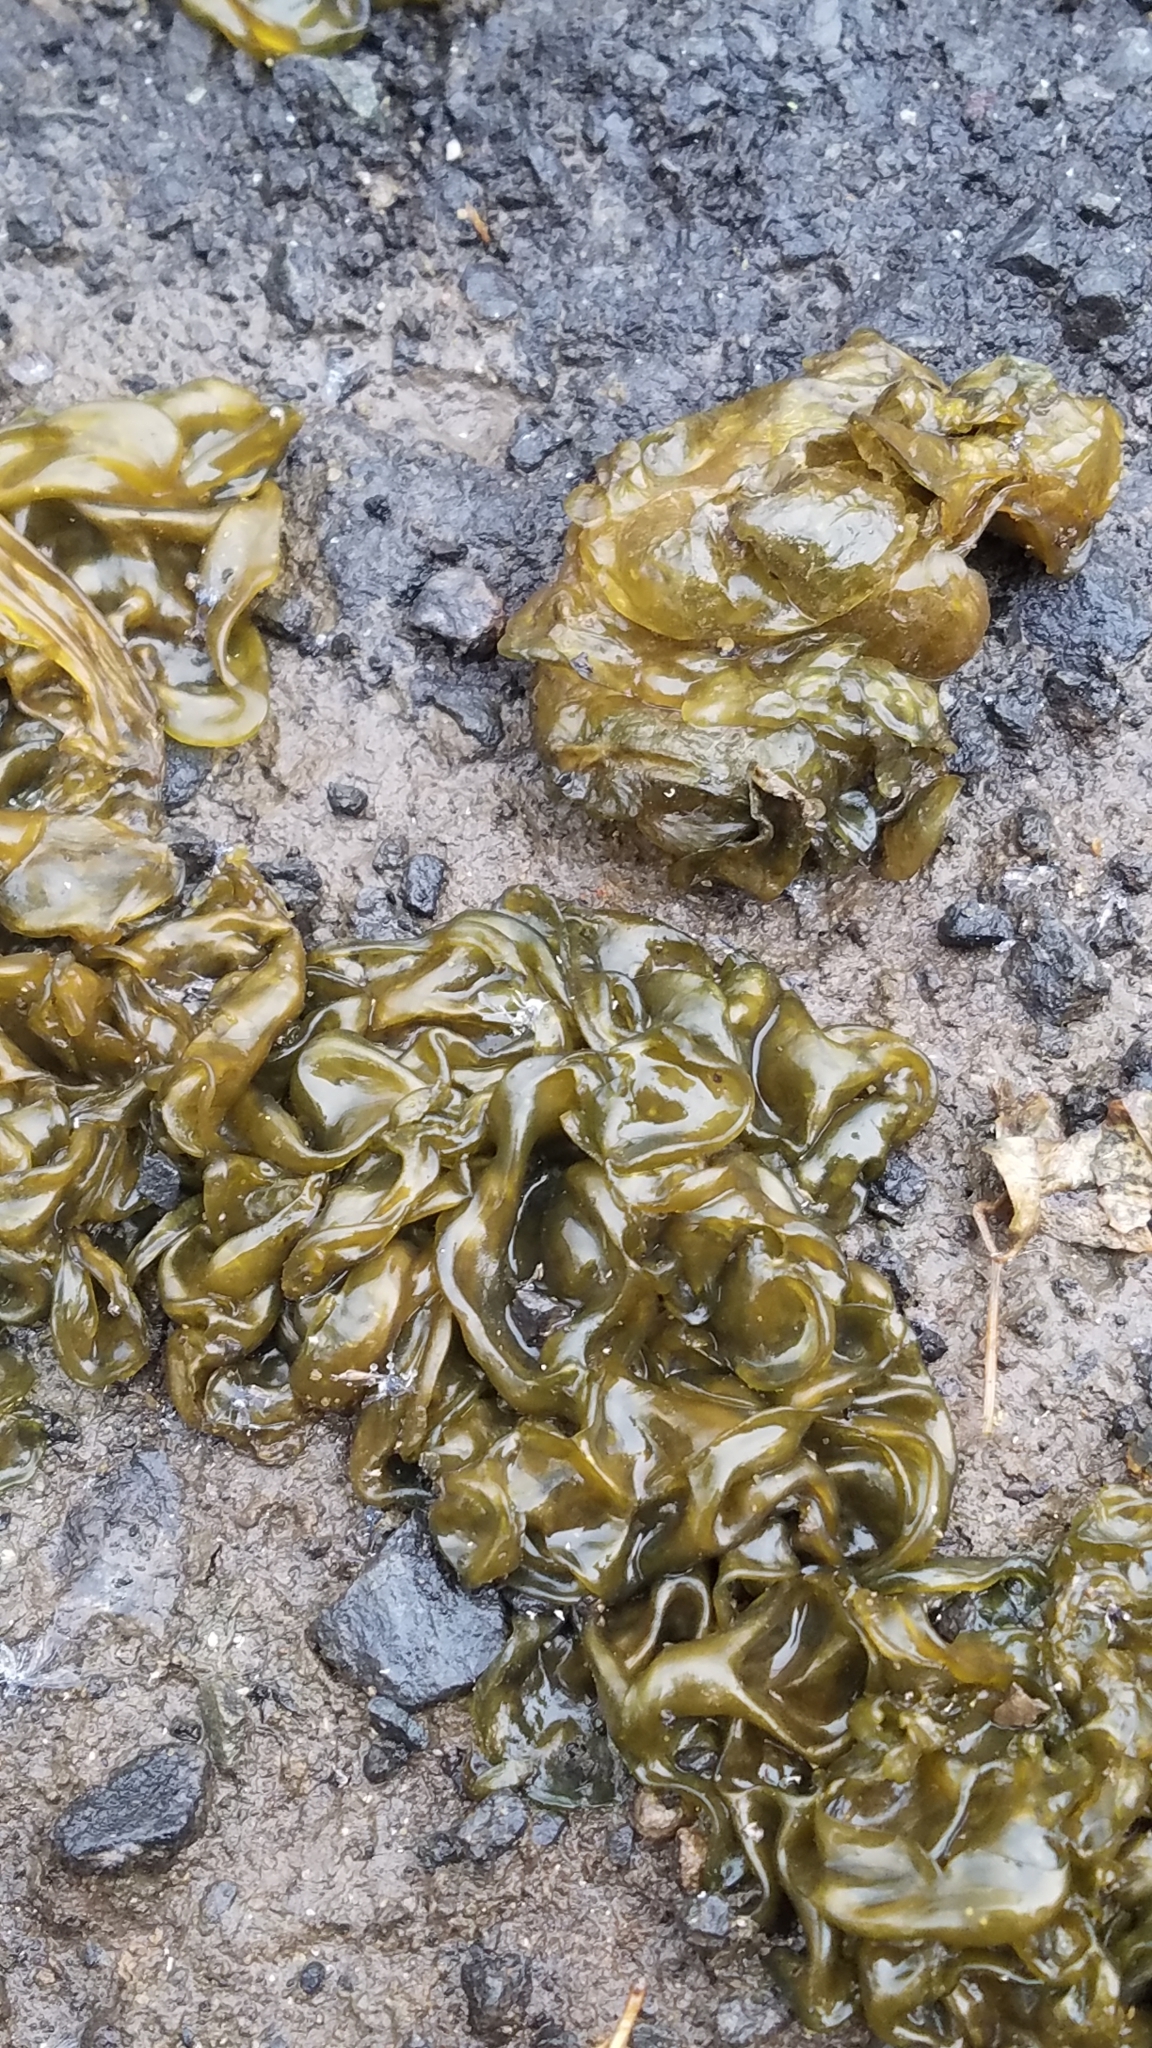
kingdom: Bacteria
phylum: Cyanobacteria
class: Cyanobacteriia
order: Cyanobacteriales
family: Nostocaceae
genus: Nostoc
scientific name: Nostoc commune
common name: Star jelly
